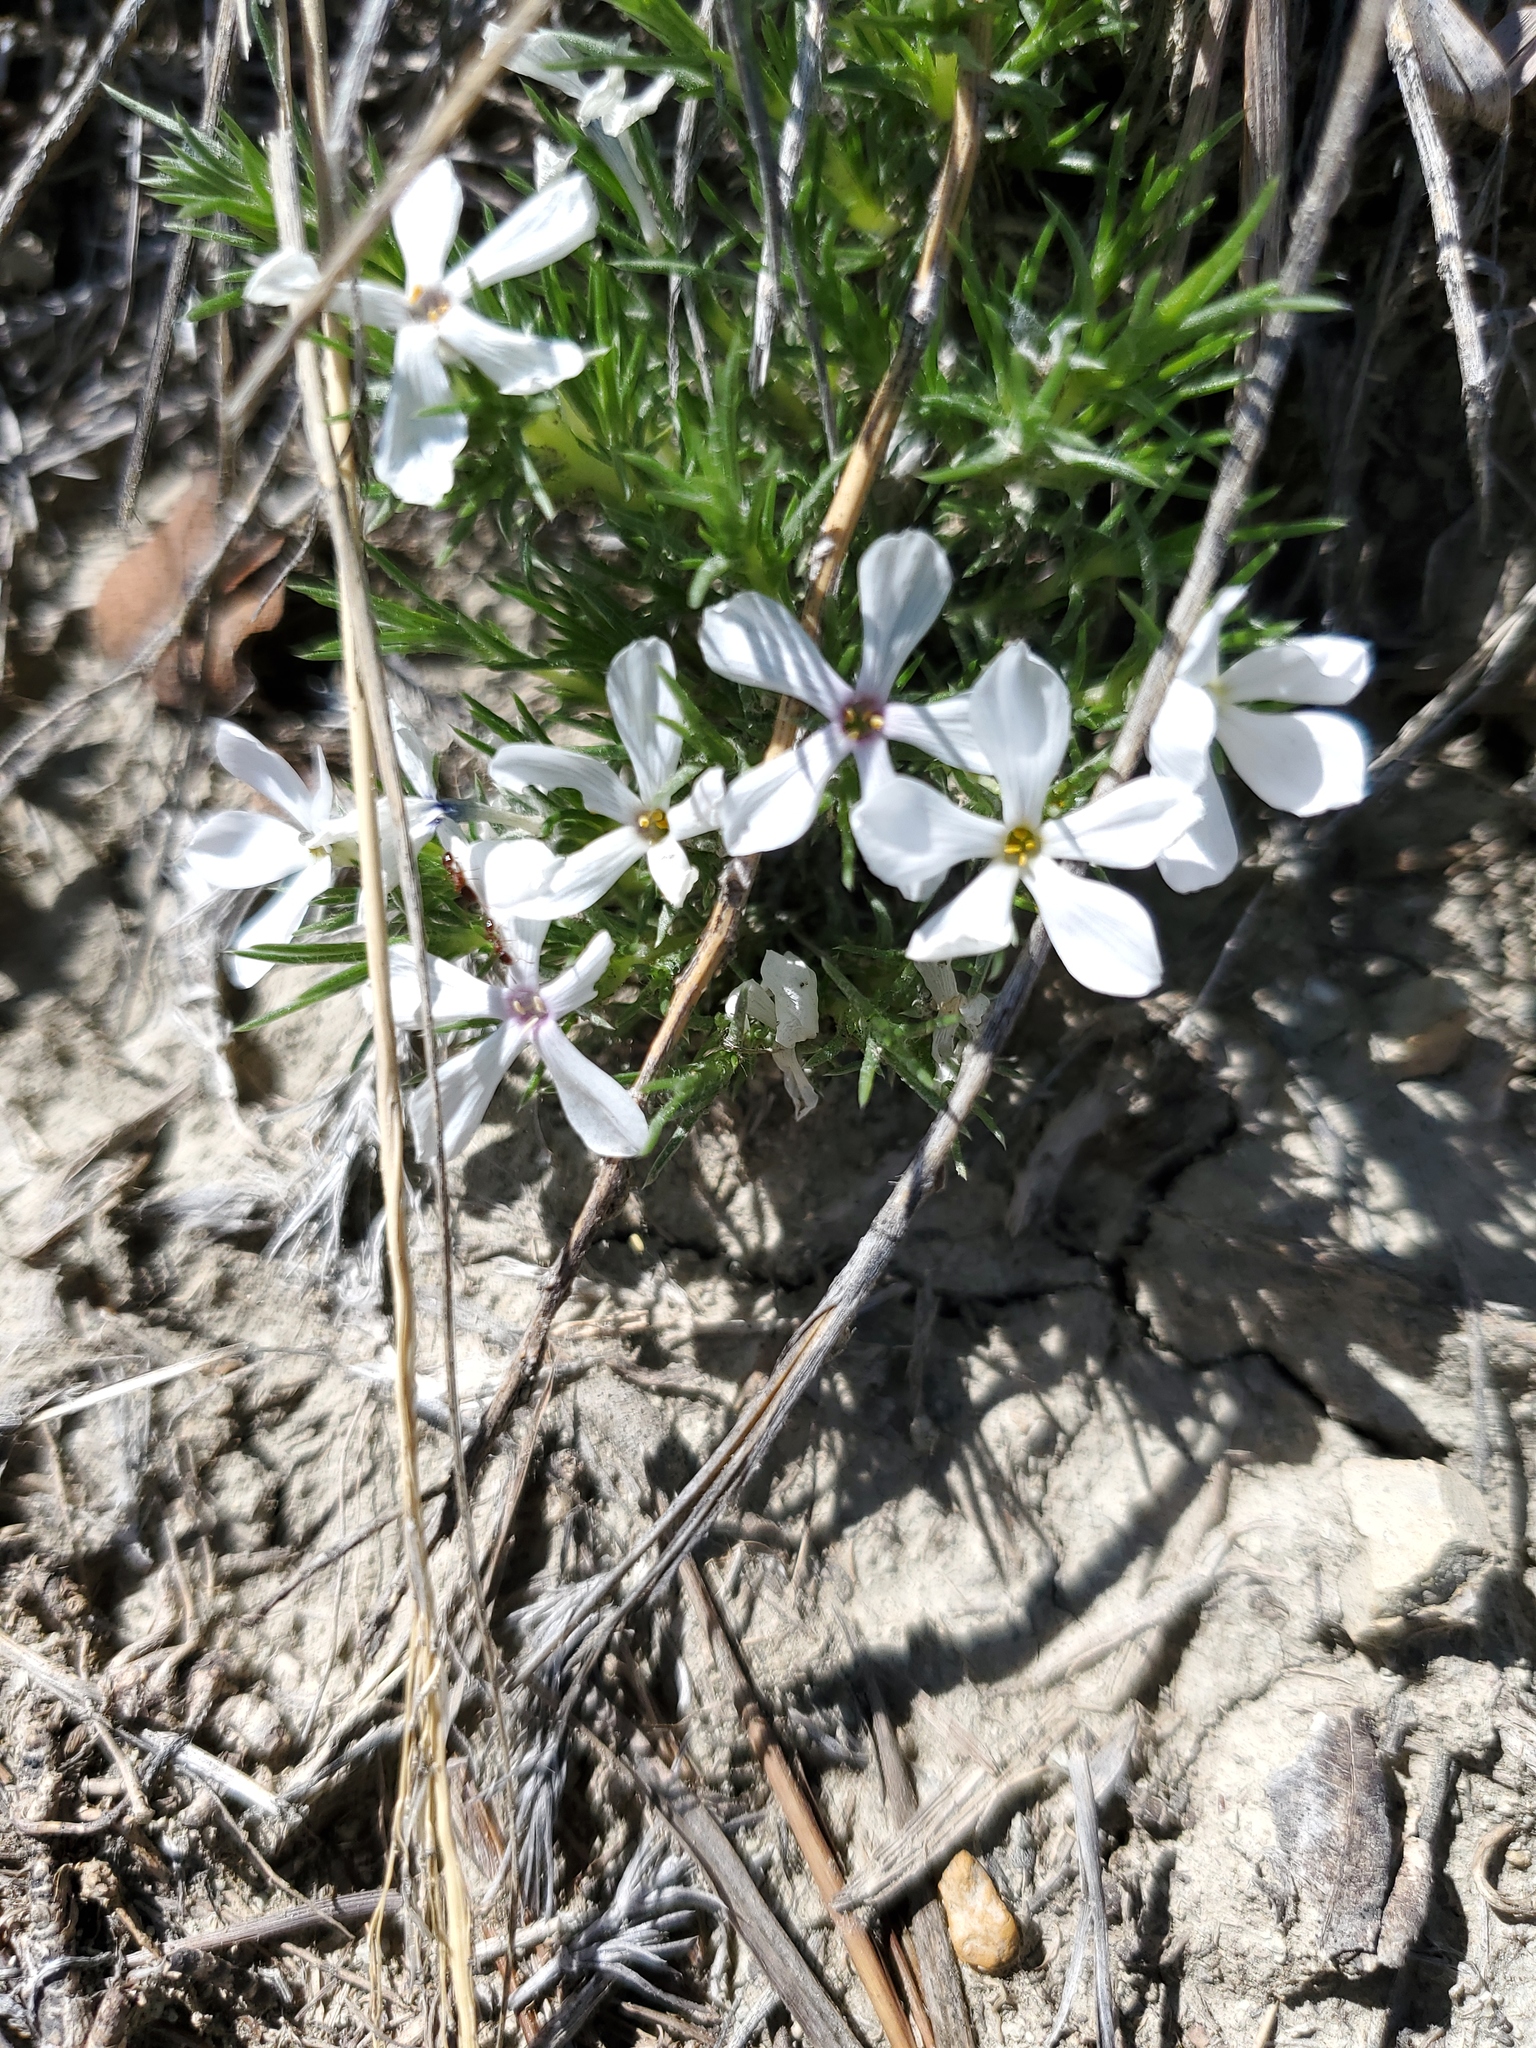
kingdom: Plantae
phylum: Tracheophyta
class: Magnoliopsida
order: Ericales
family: Polemoniaceae
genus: Phlox
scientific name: Phlox hoodii
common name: Moss phlox
